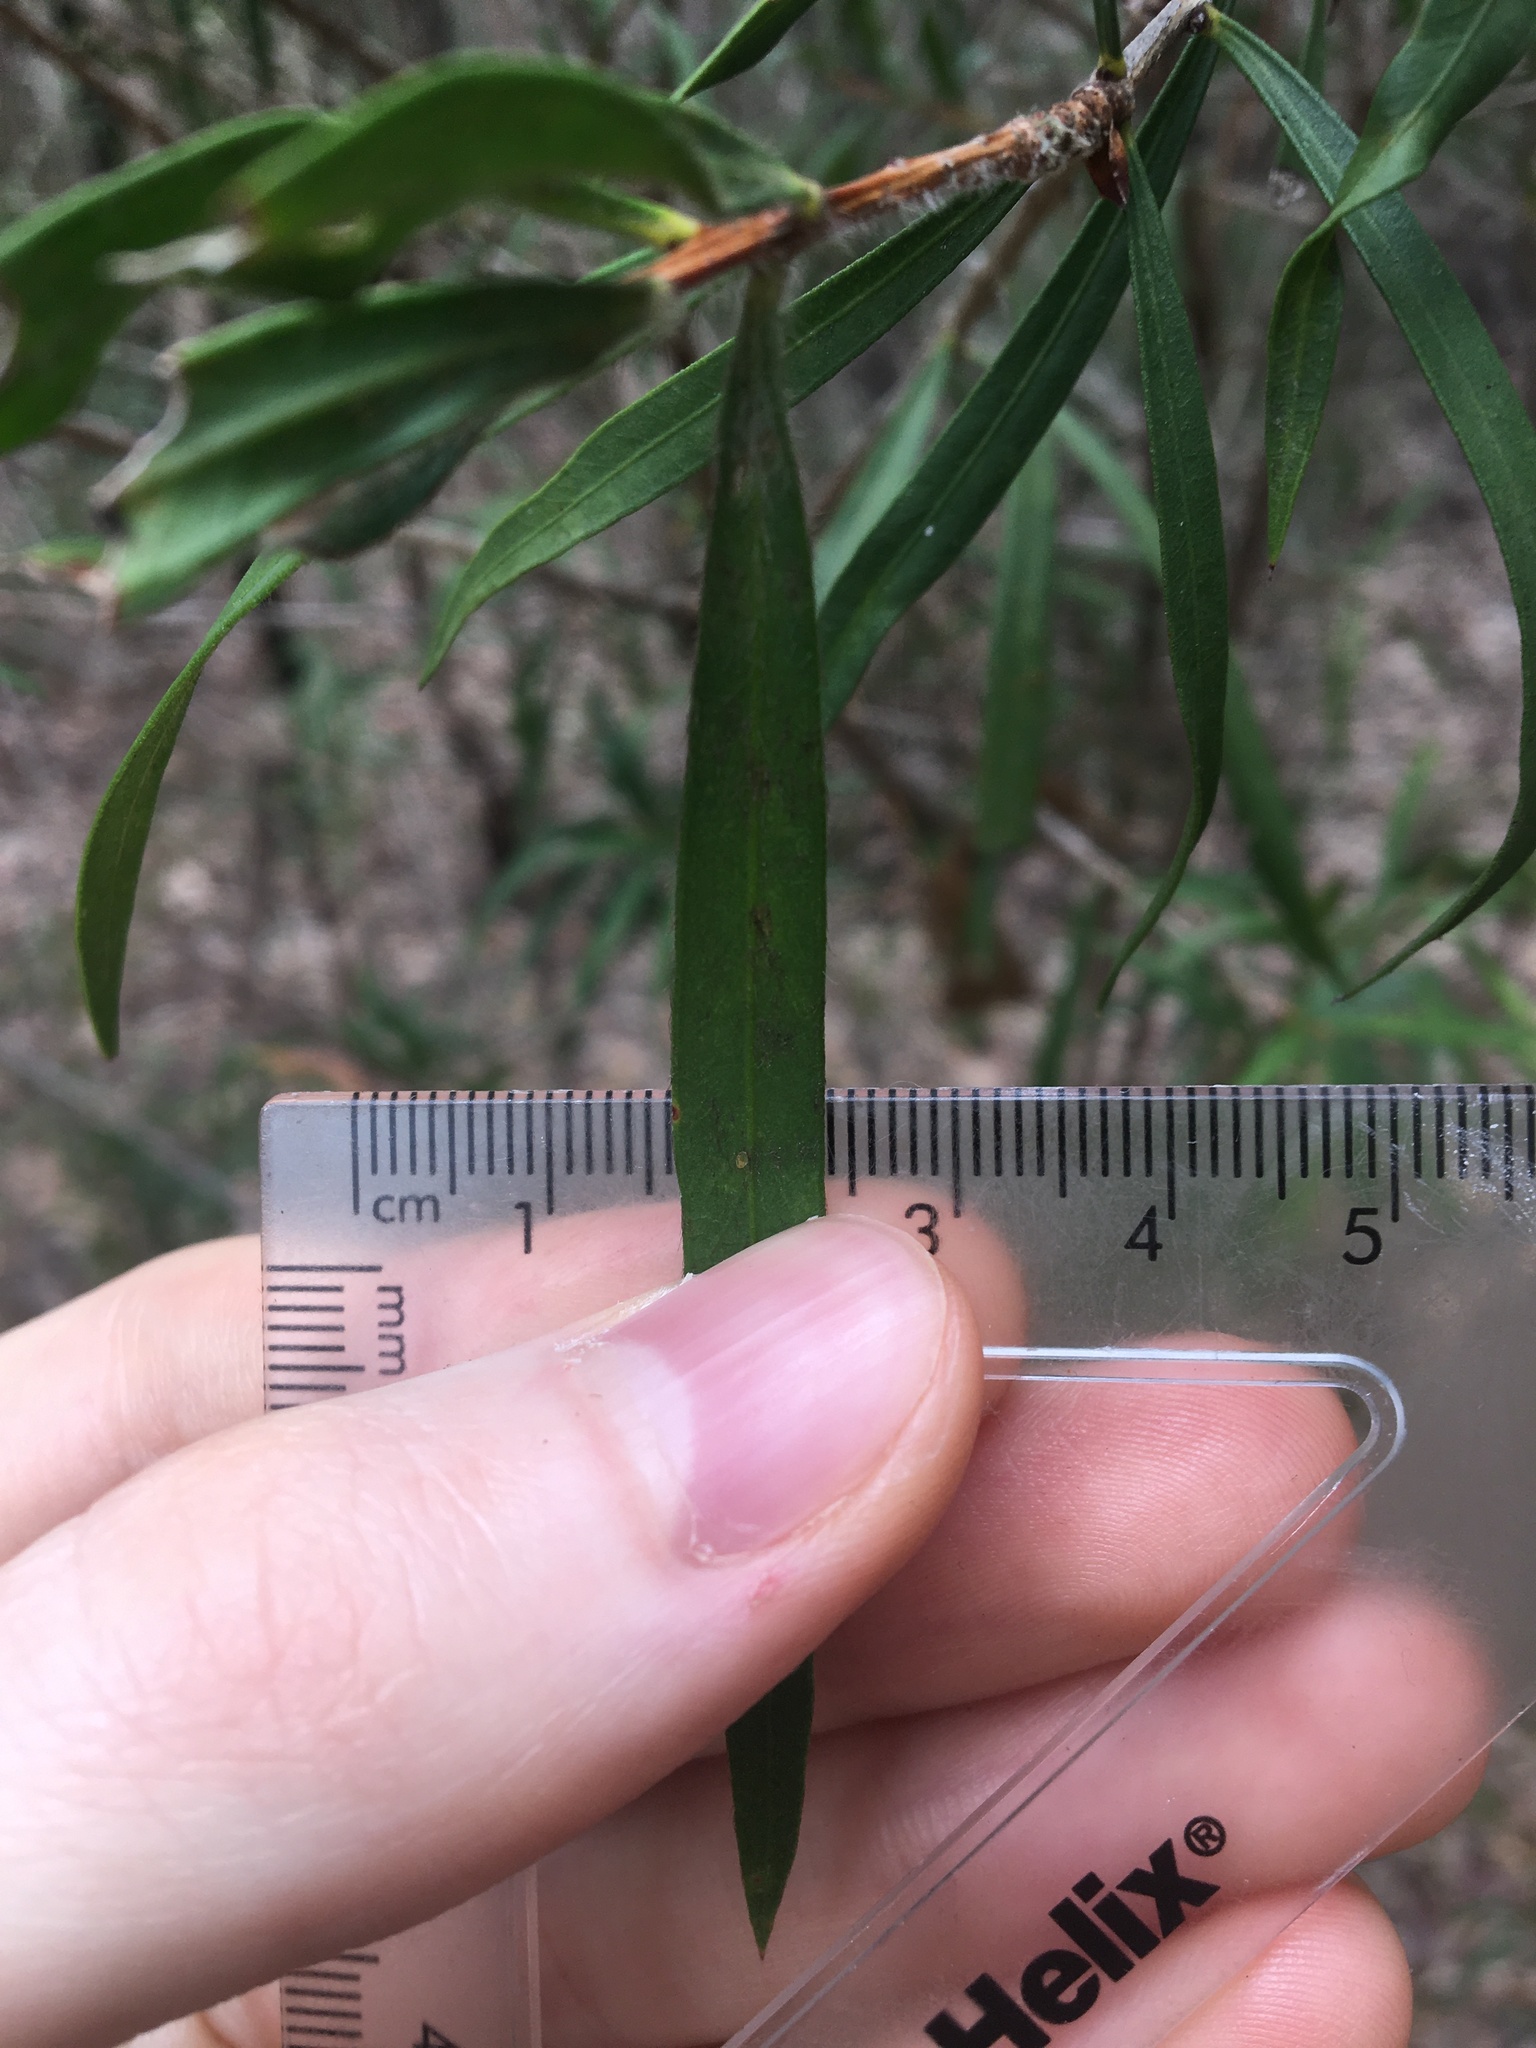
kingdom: Plantae
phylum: Tracheophyta
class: Magnoliopsida
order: Myrtales
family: Myrtaceae
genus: Melaleuca
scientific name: Melaleuca linearifolia
